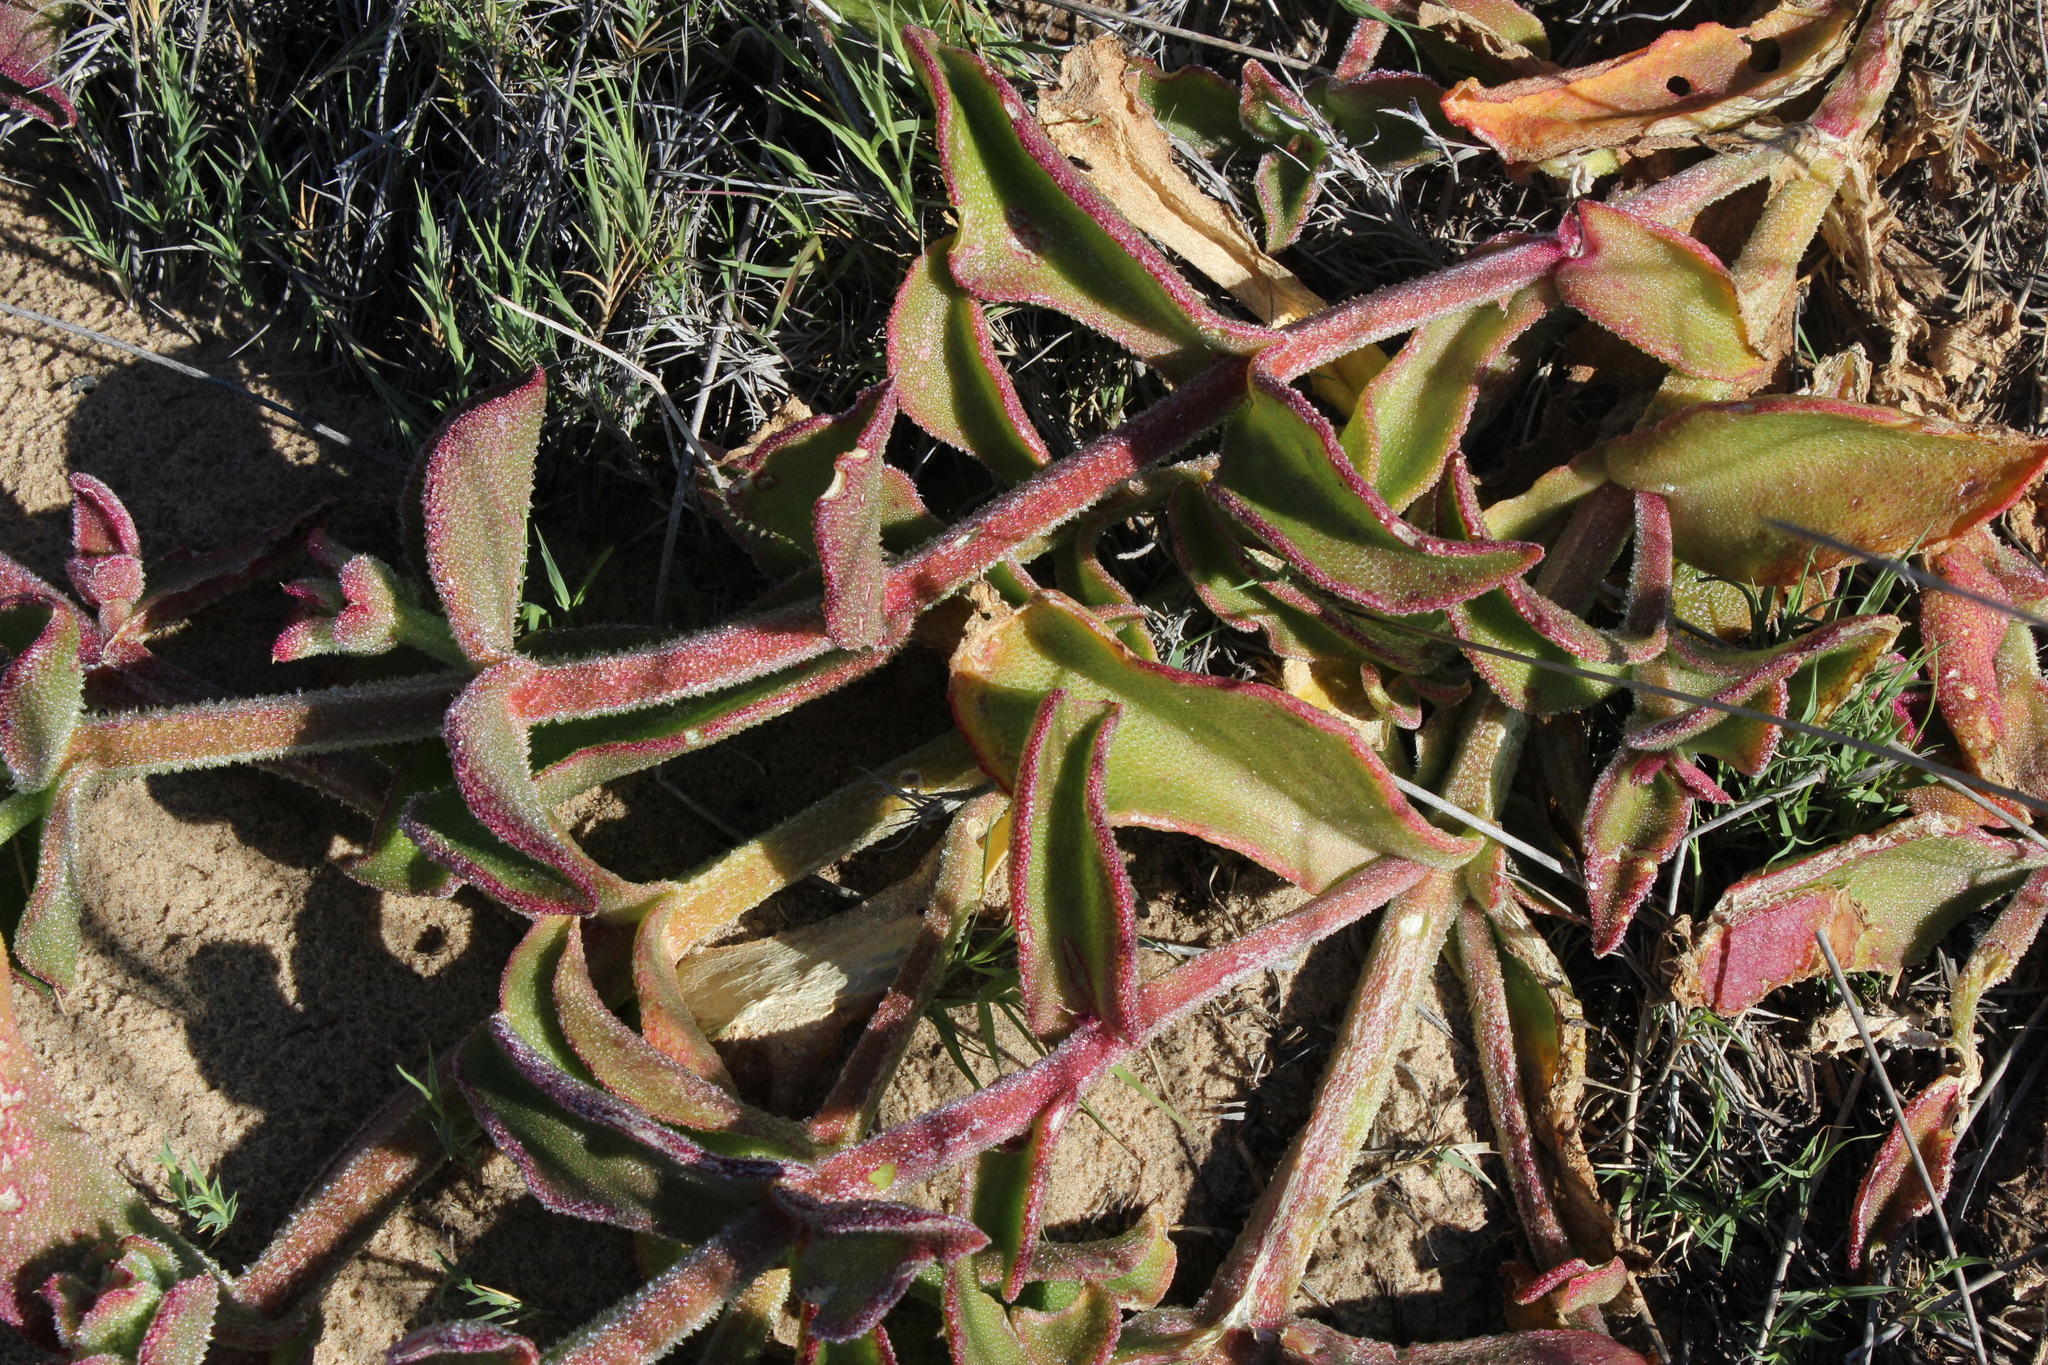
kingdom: Plantae
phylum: Tracheophyta
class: Magnoliopsida
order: Caryophyllales
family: Aizoaceae
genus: Mesembryanthemum
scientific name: Mesembryanthemum pellitum
